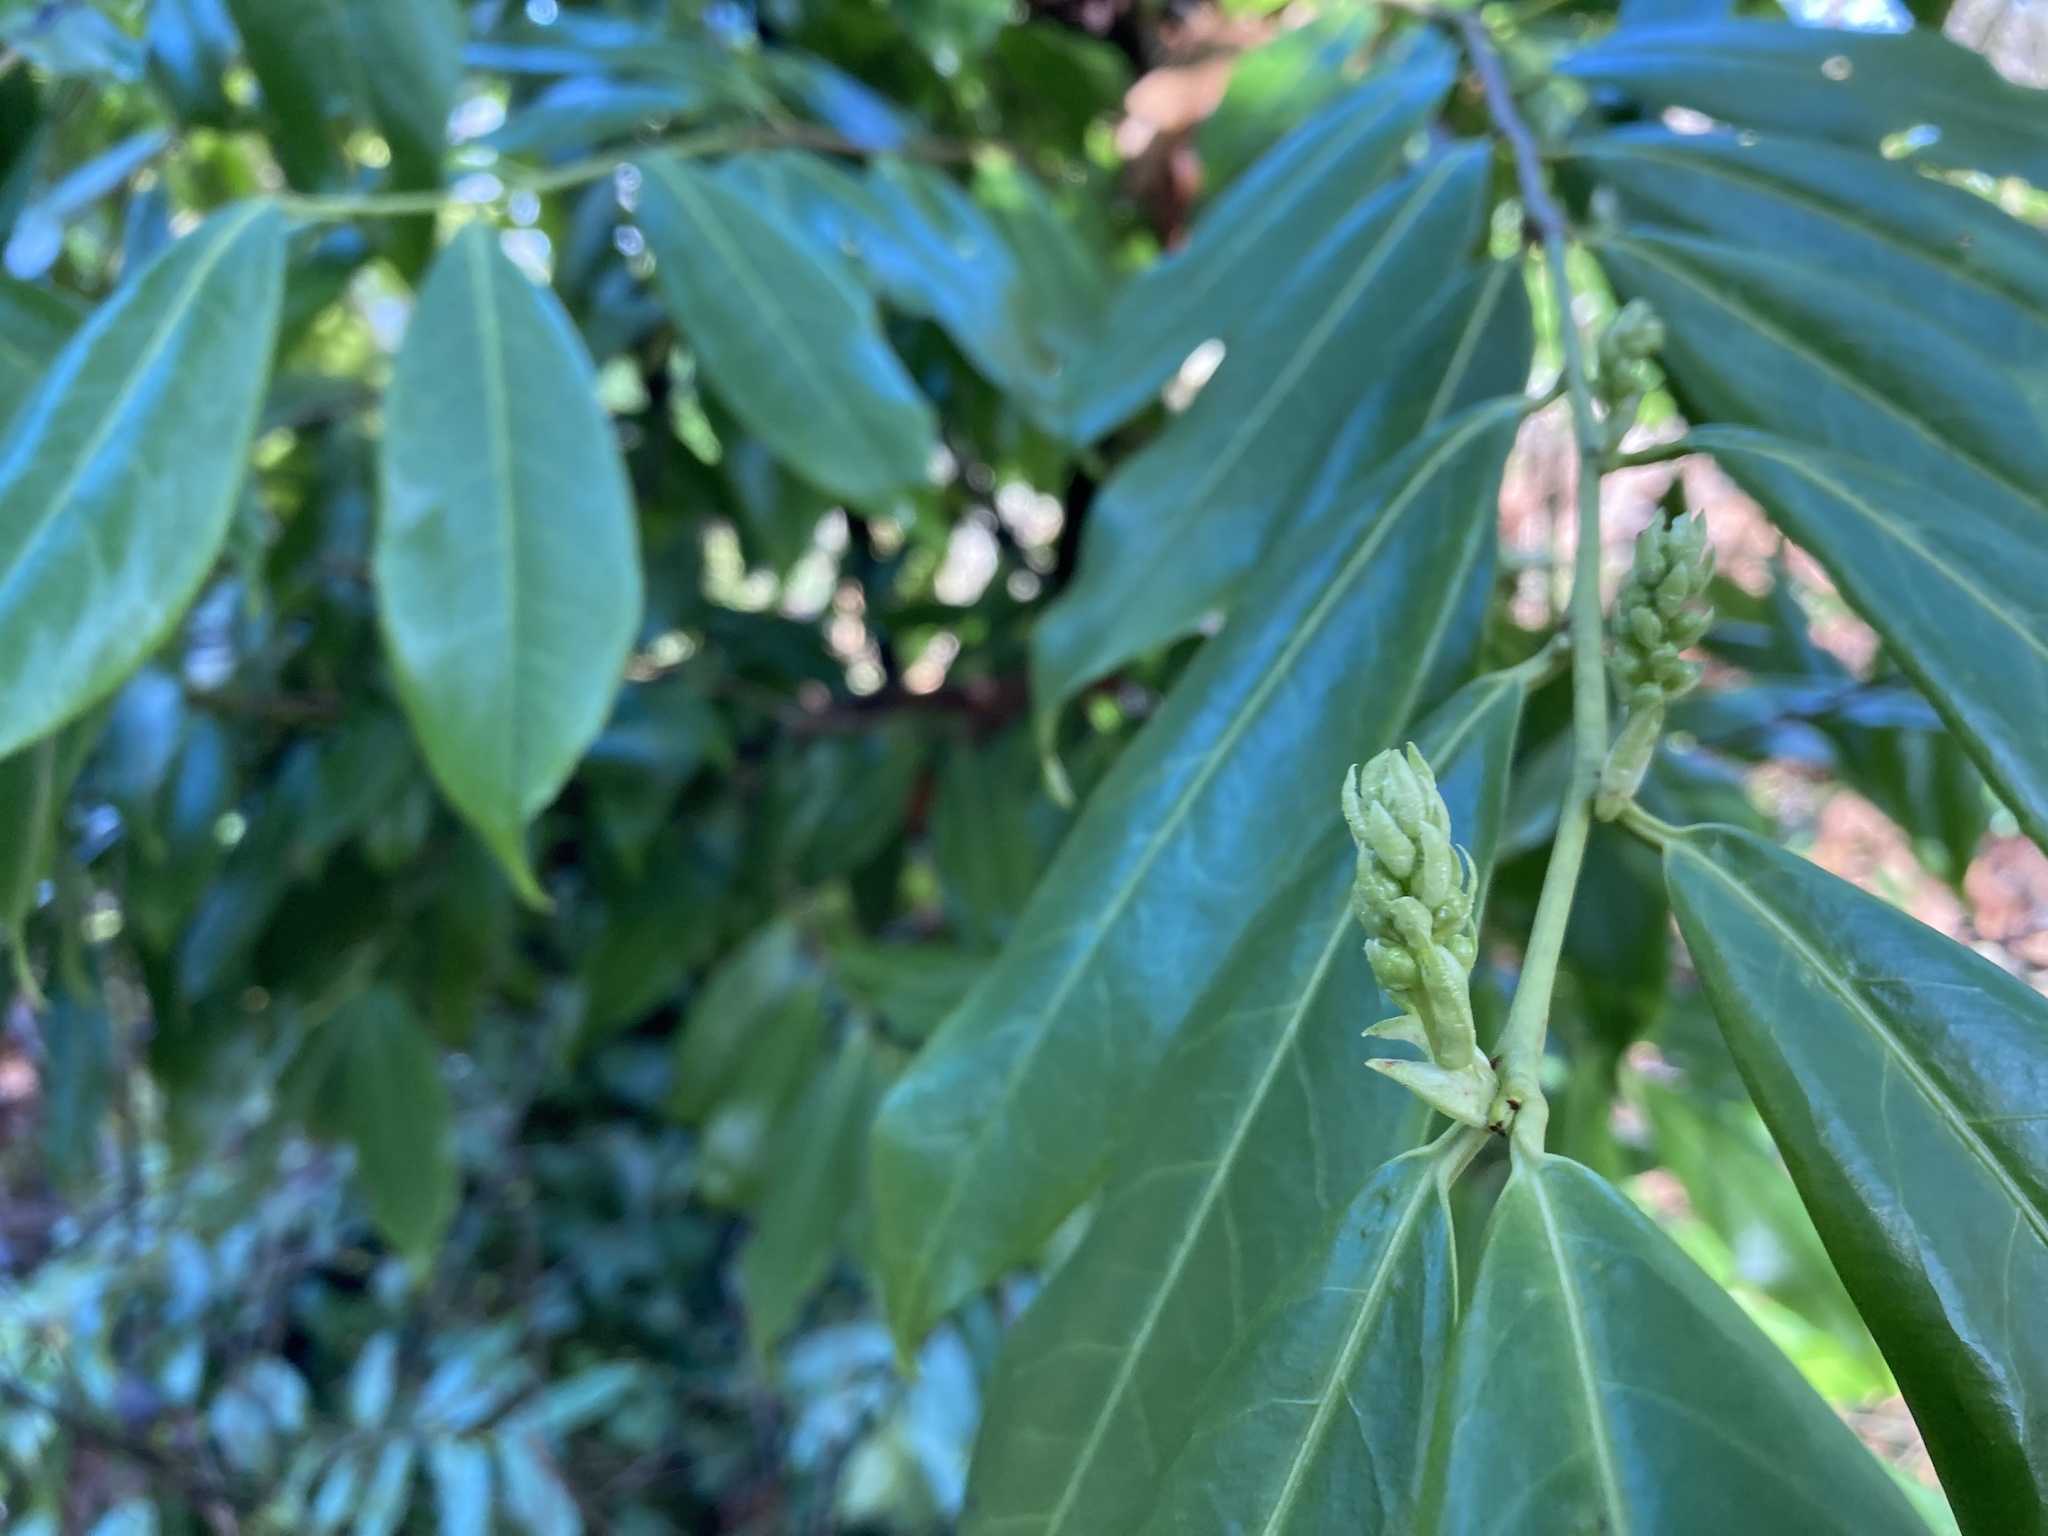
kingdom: Plantae
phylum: Tracheophyta
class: Magnoliopsida
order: Rosales
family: Rosaceae
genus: Prunus
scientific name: Prunus laurocerasus
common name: Cherry laurel
